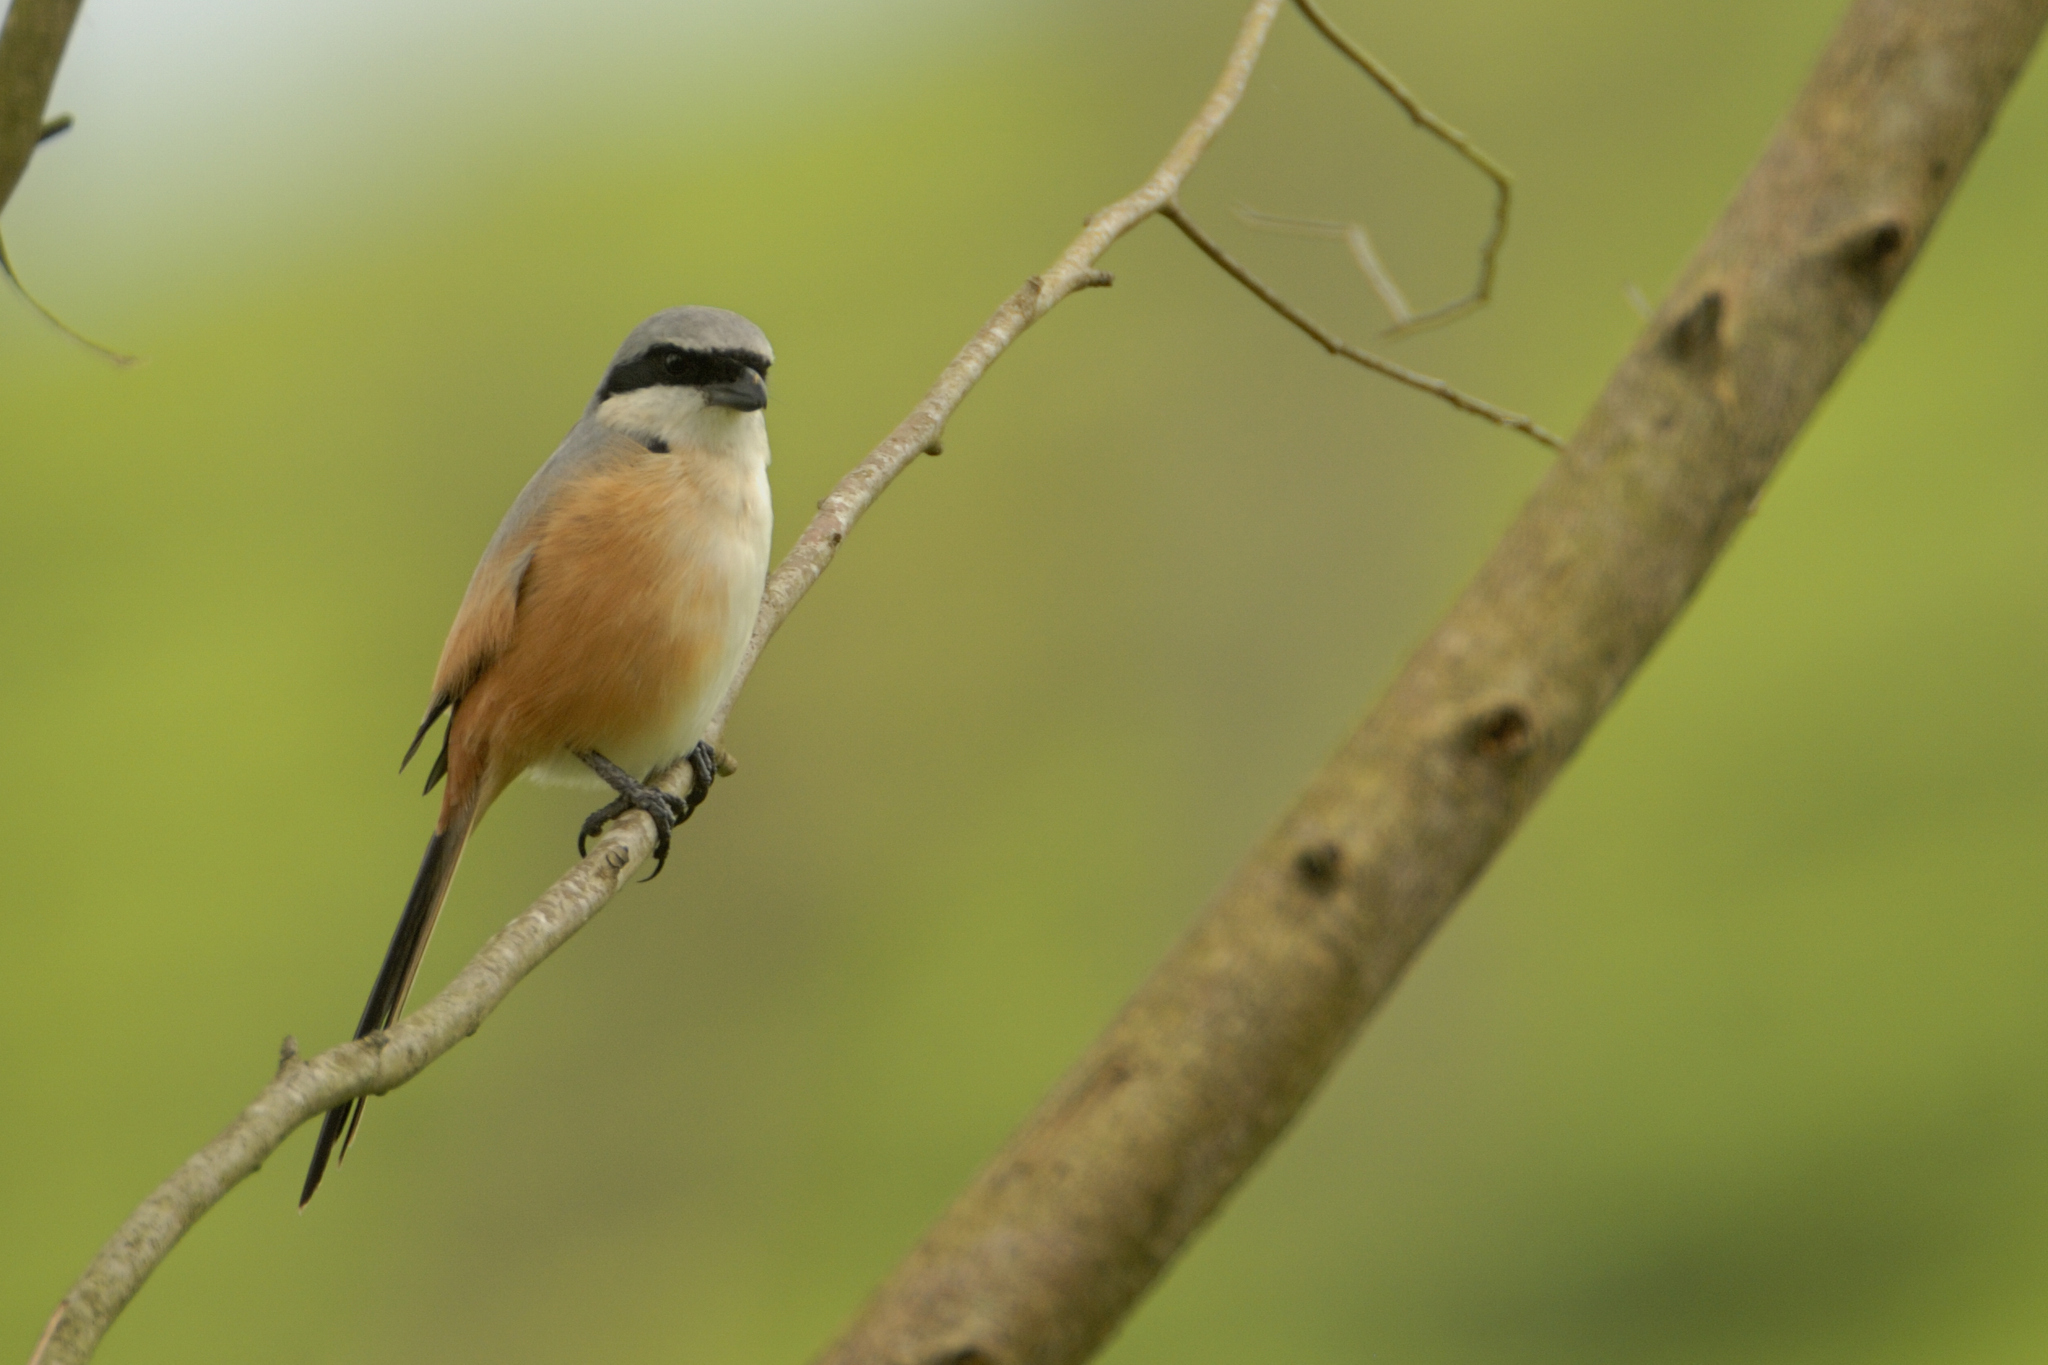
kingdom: Animalia
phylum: Chordata
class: Aves
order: Passeriformes
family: Laniidae
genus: Lanius
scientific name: Lanius schach
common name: Long-tailed shrike
